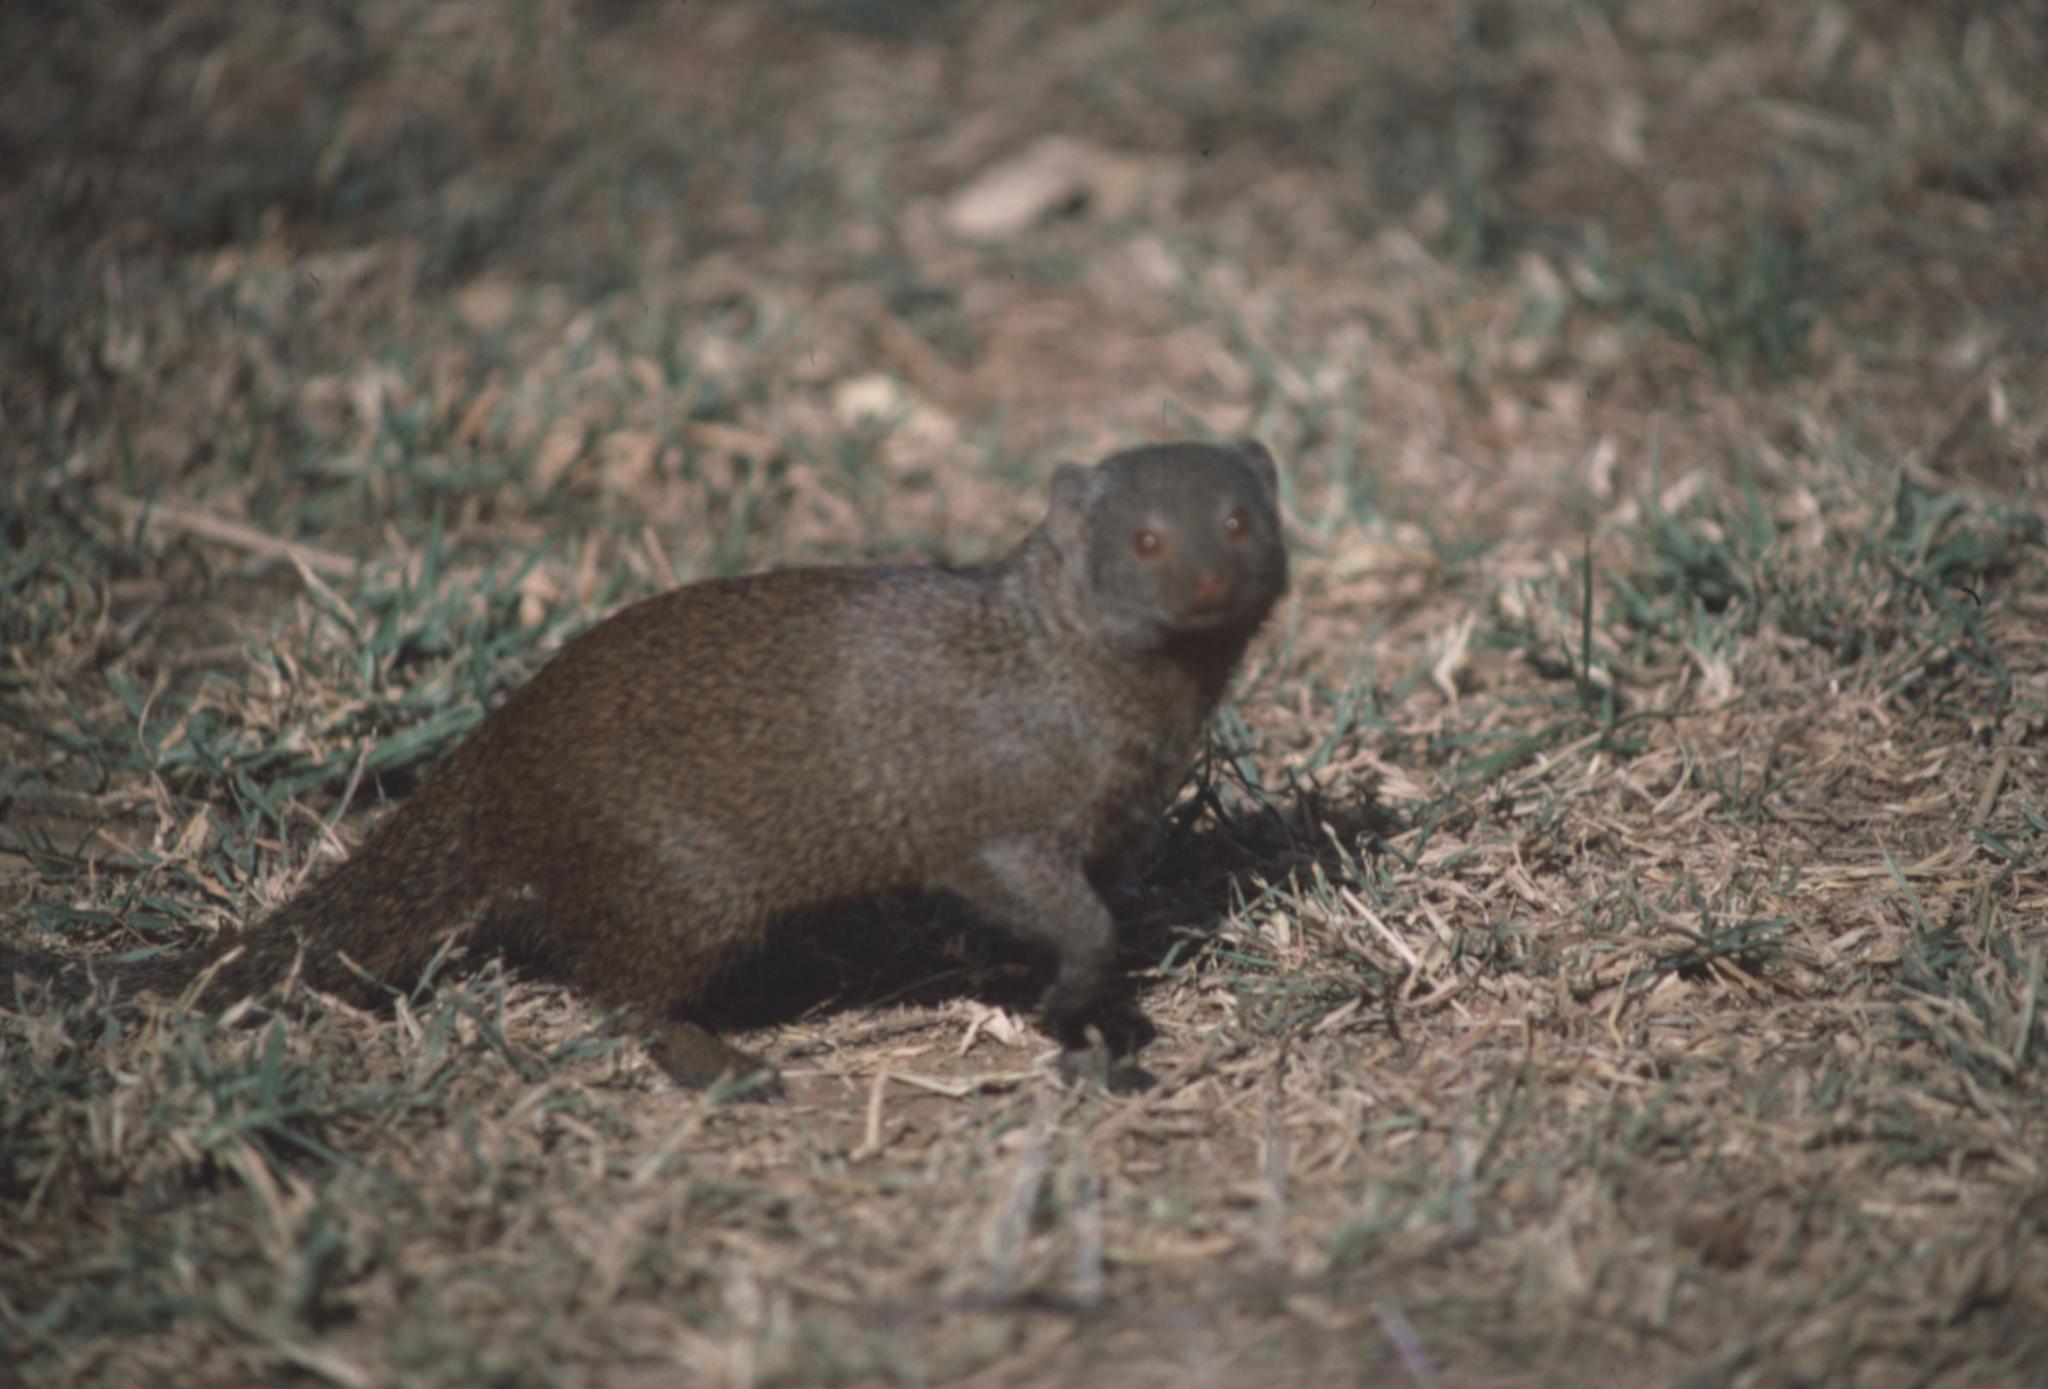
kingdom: Animalia
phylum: Chordata
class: Mammalia
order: Carnivora
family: Herpestidae
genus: Helogale
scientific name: Helogale parvula
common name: Common dwarf mongoose
